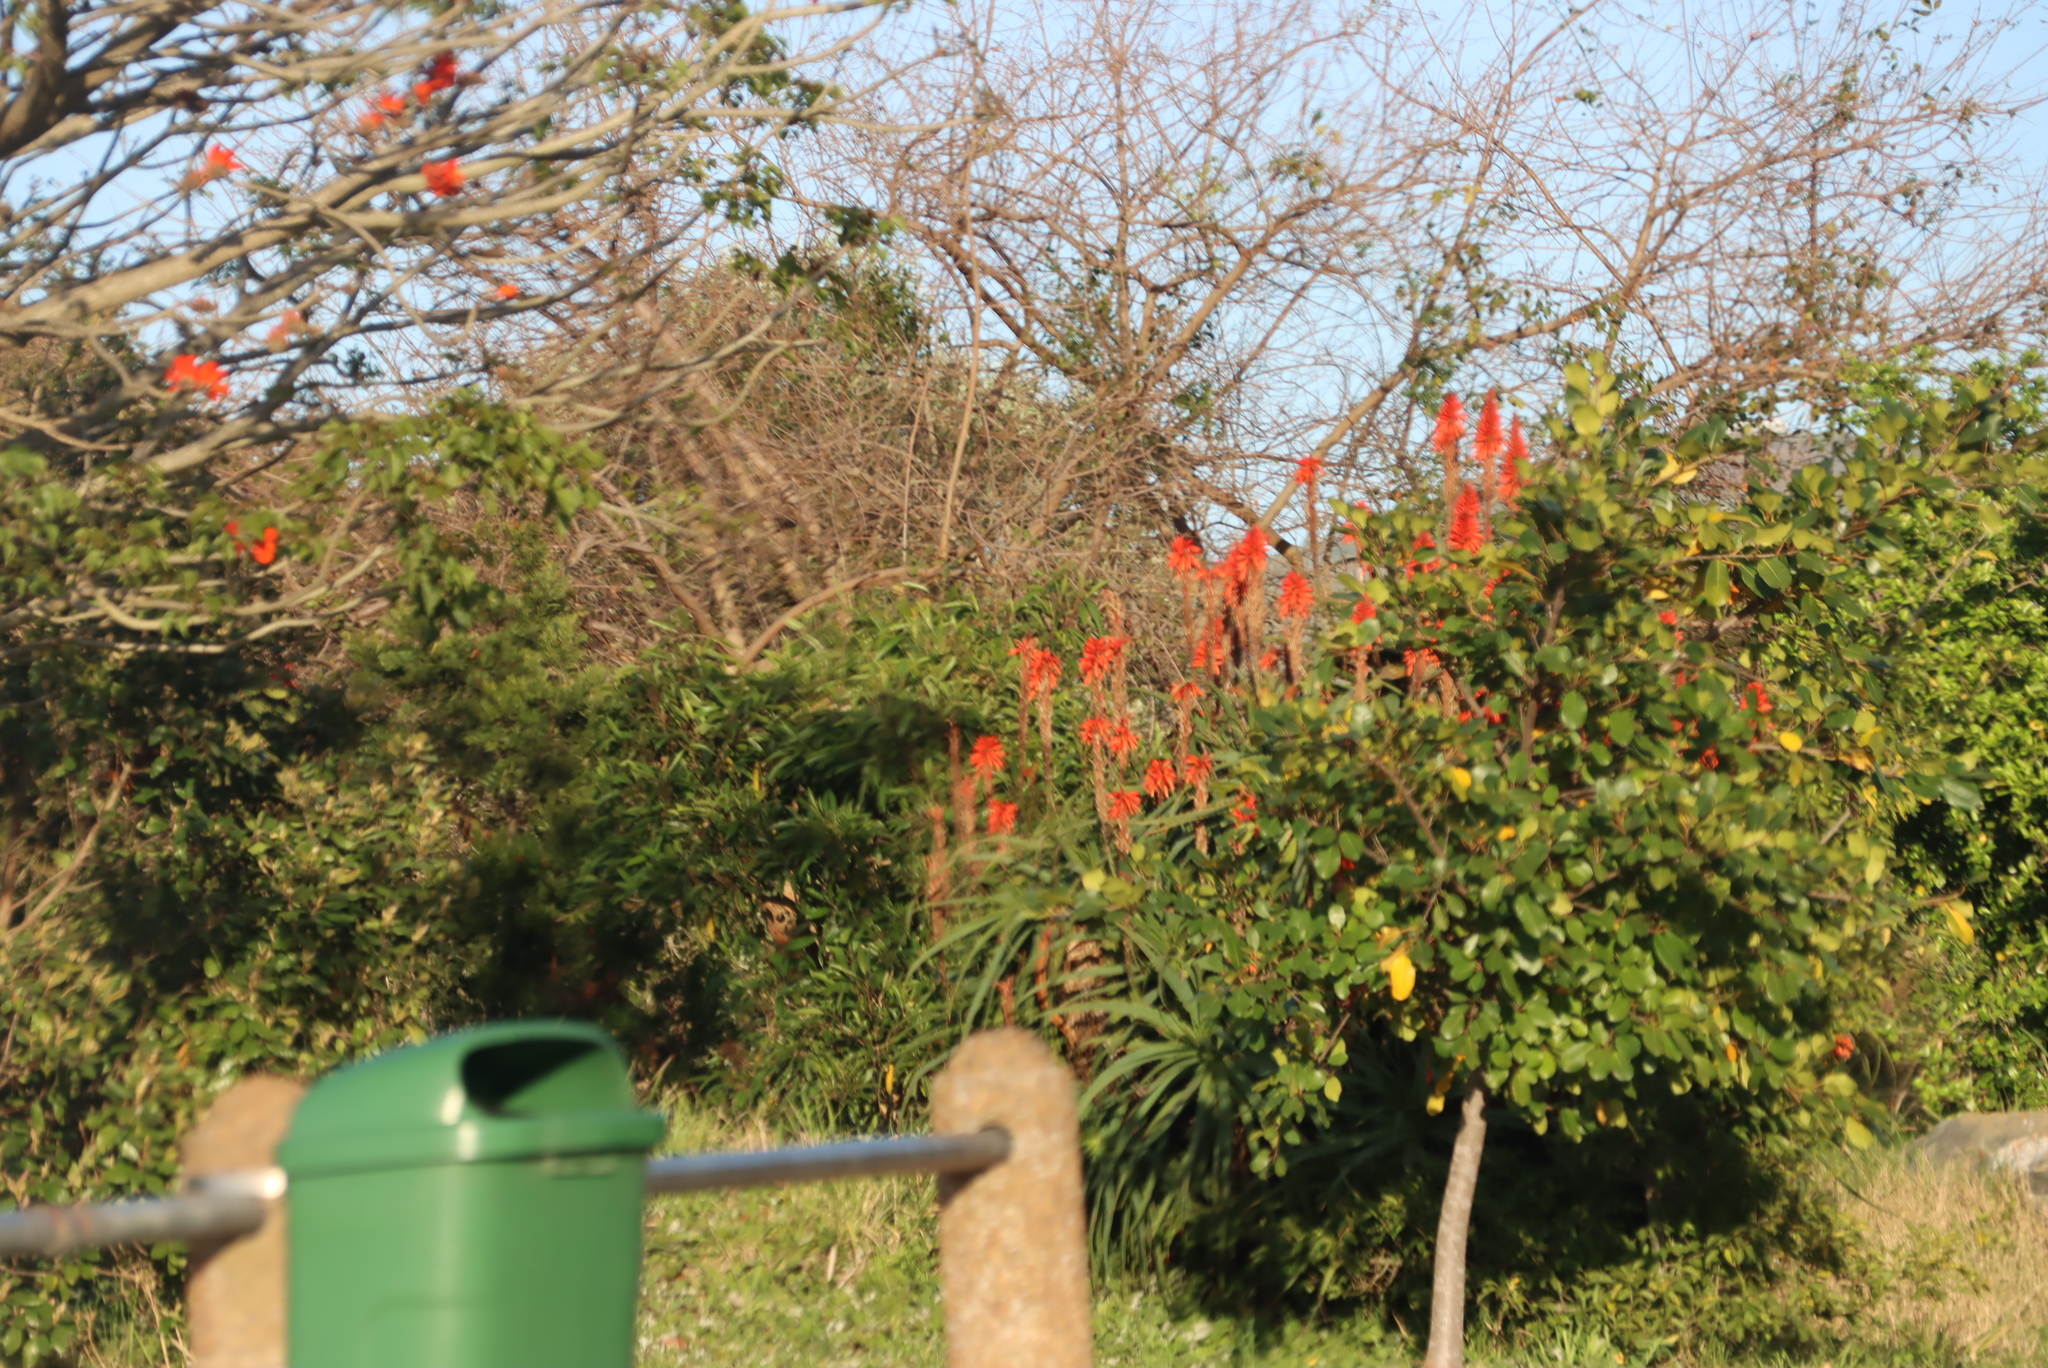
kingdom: Plantae
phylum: Tracheophyta
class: Liliopsida
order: Asparagales
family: Asphodelaceae
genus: Aloe
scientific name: Aloe arborescens
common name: Candelabra aloe
